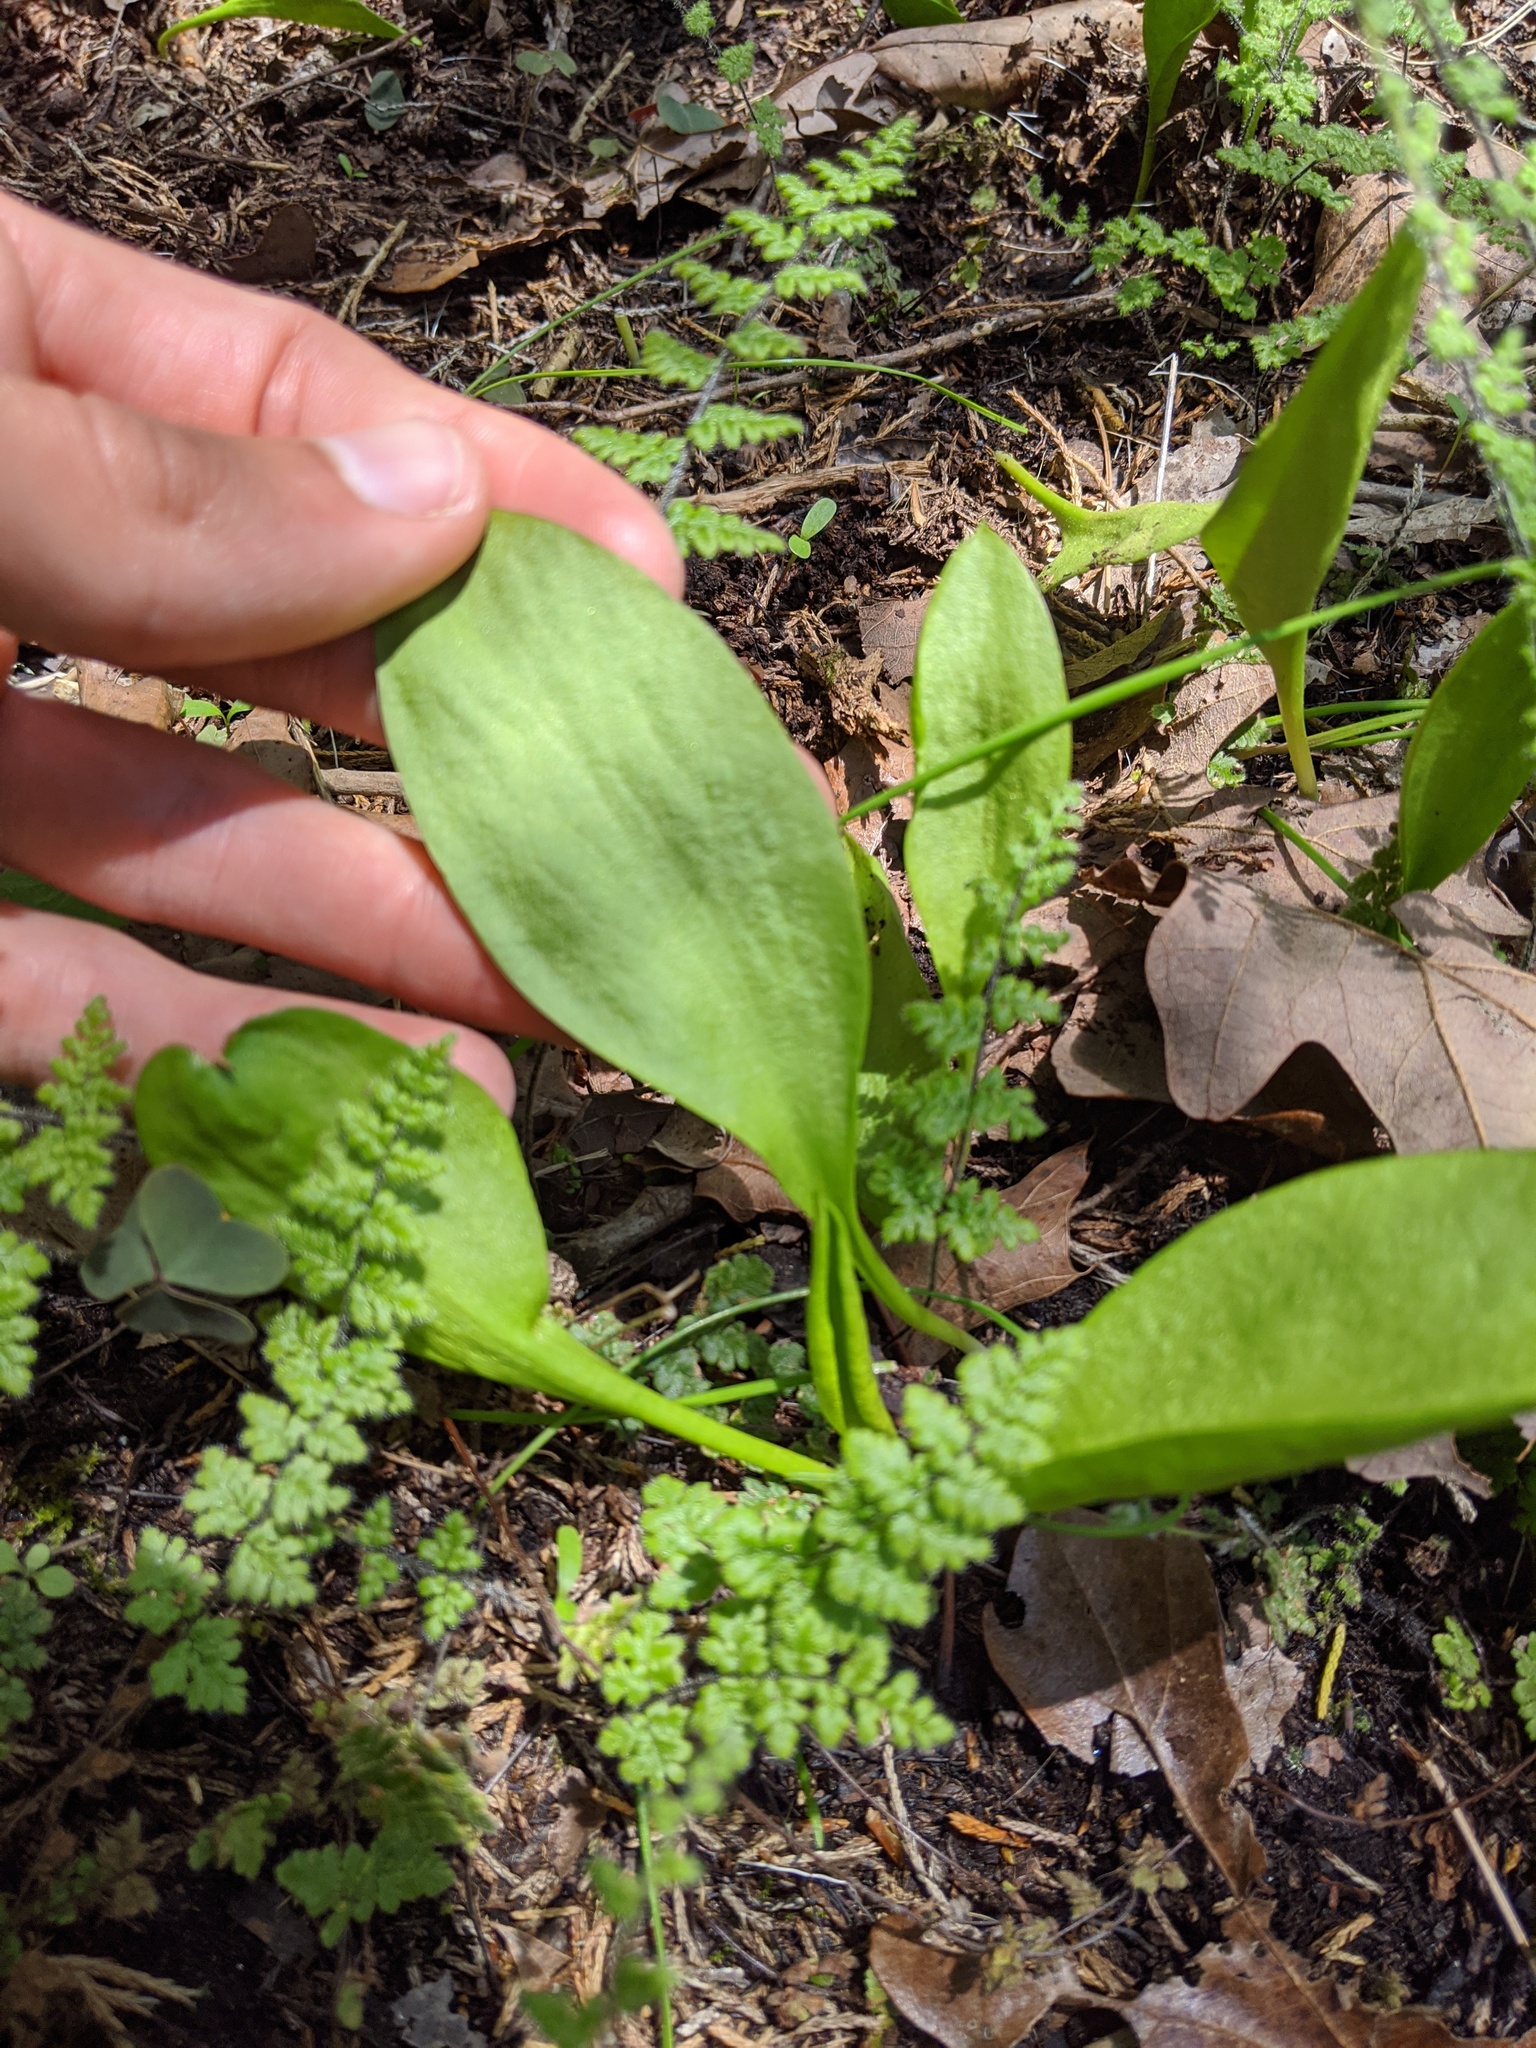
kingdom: Plantae
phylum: Tracheophyta
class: Polypodiopsida
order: Ophioglossales
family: Ophioglossaceae
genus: Ophioglossum
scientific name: Ophioglossum engelmannii
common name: Limestone adder's-tongue
